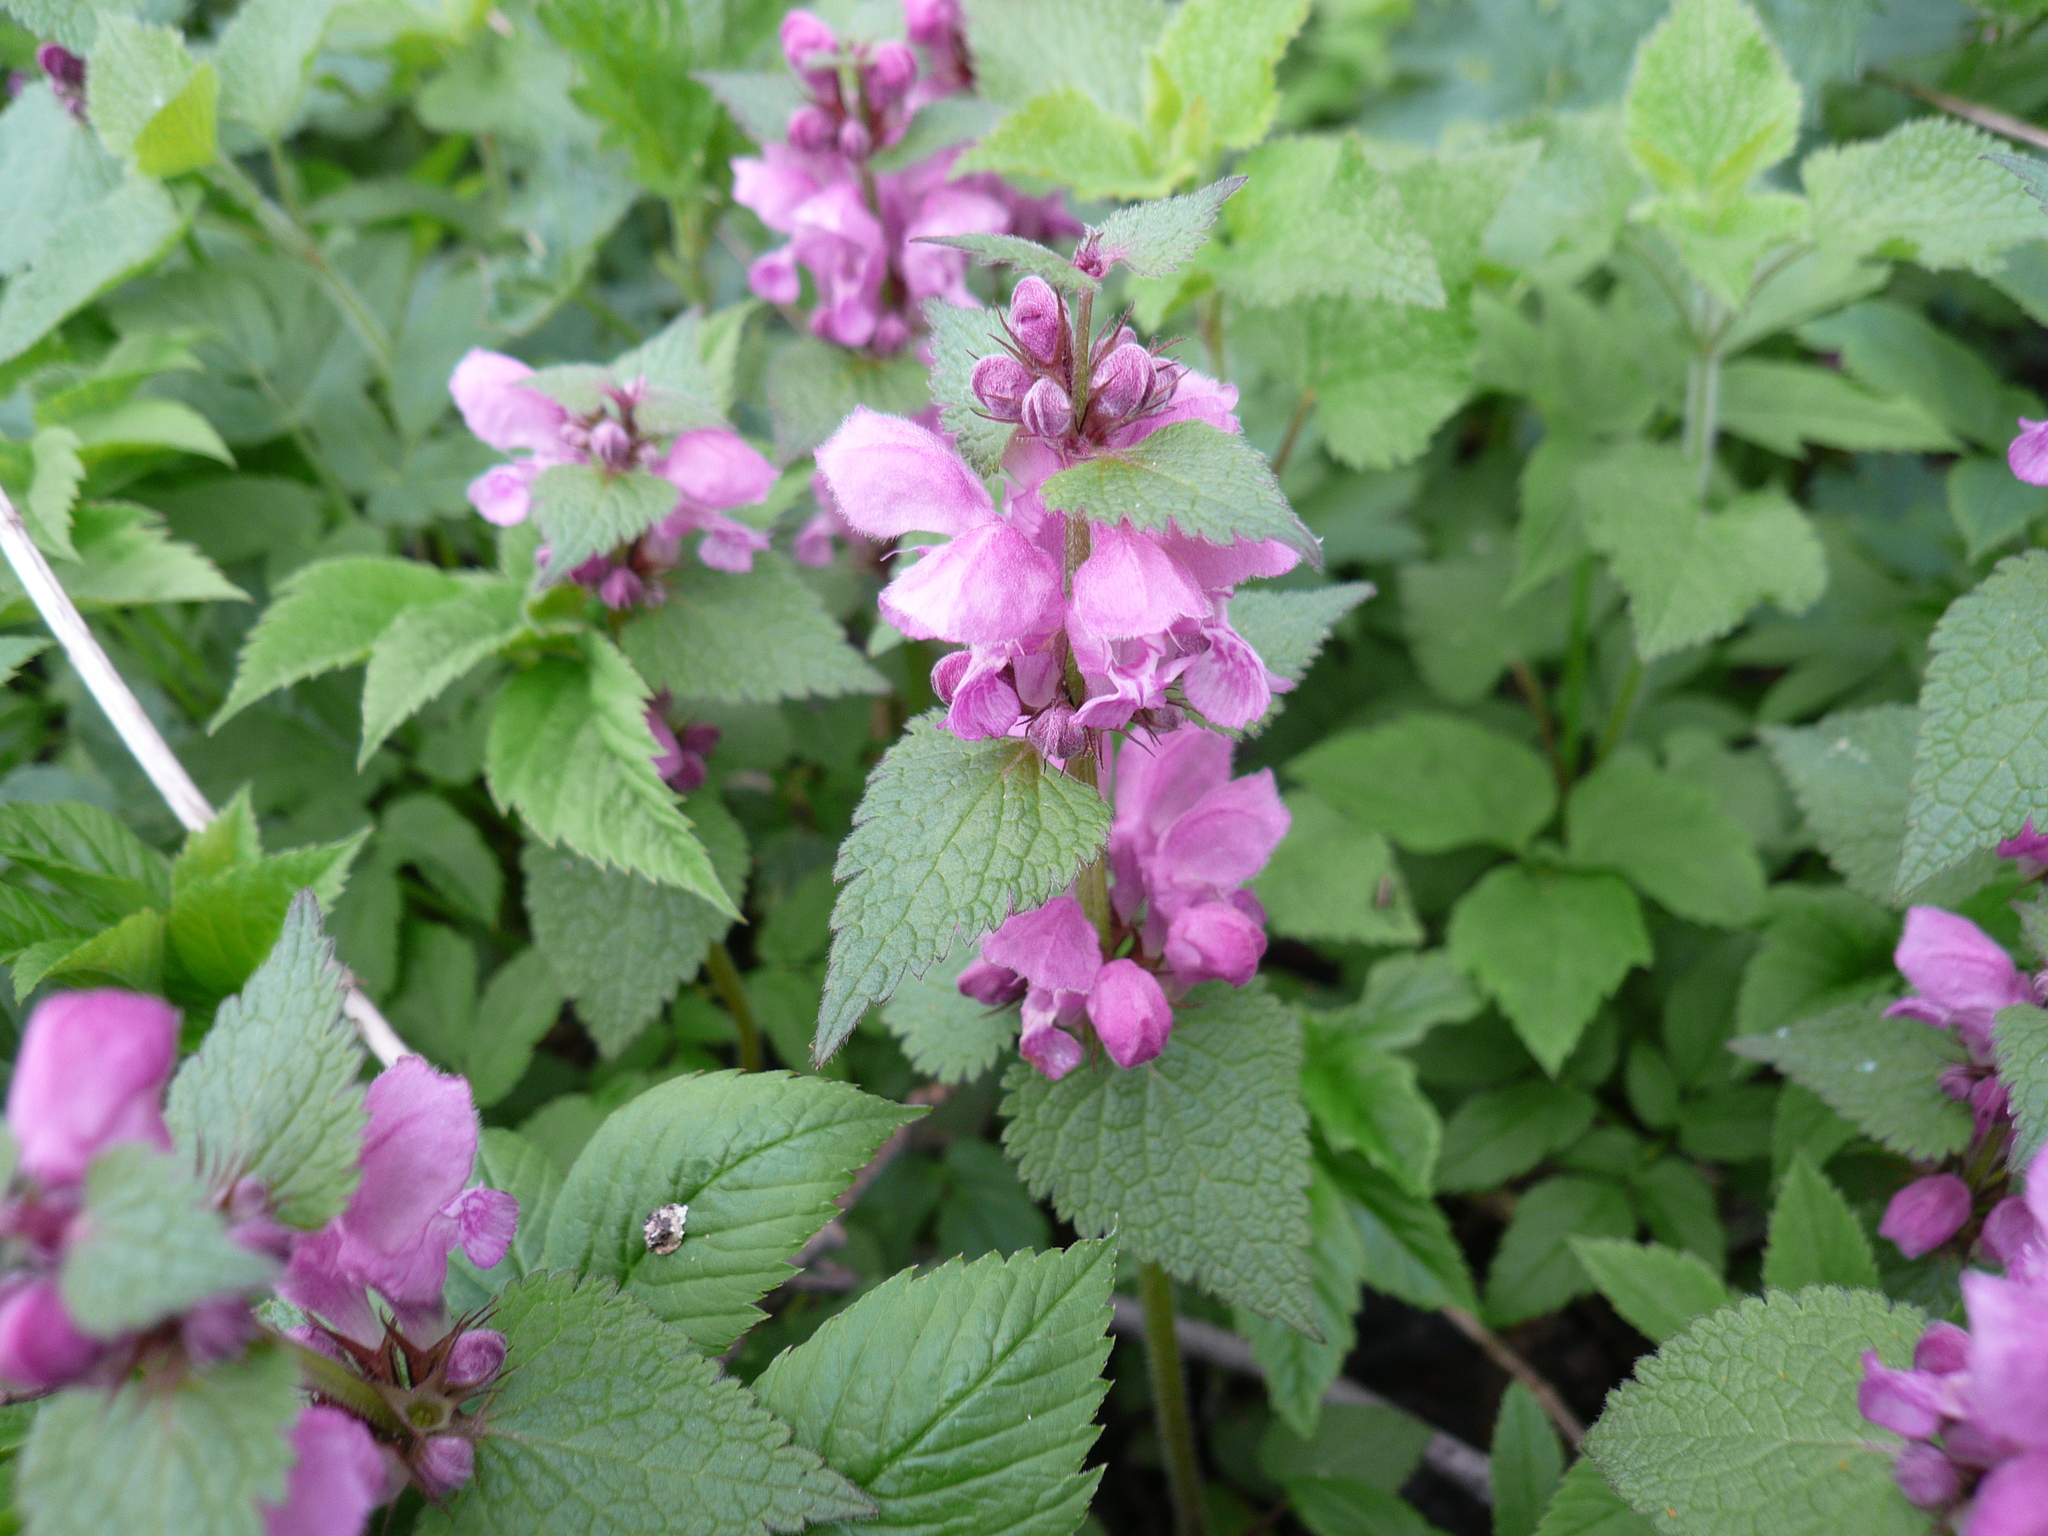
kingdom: Plantae
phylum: Tracheophyta
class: Magnoliopsida
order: Lamiales
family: Lamiaceae
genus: Lamium
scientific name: Lamium maculatum
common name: Spotted dead-nettle
